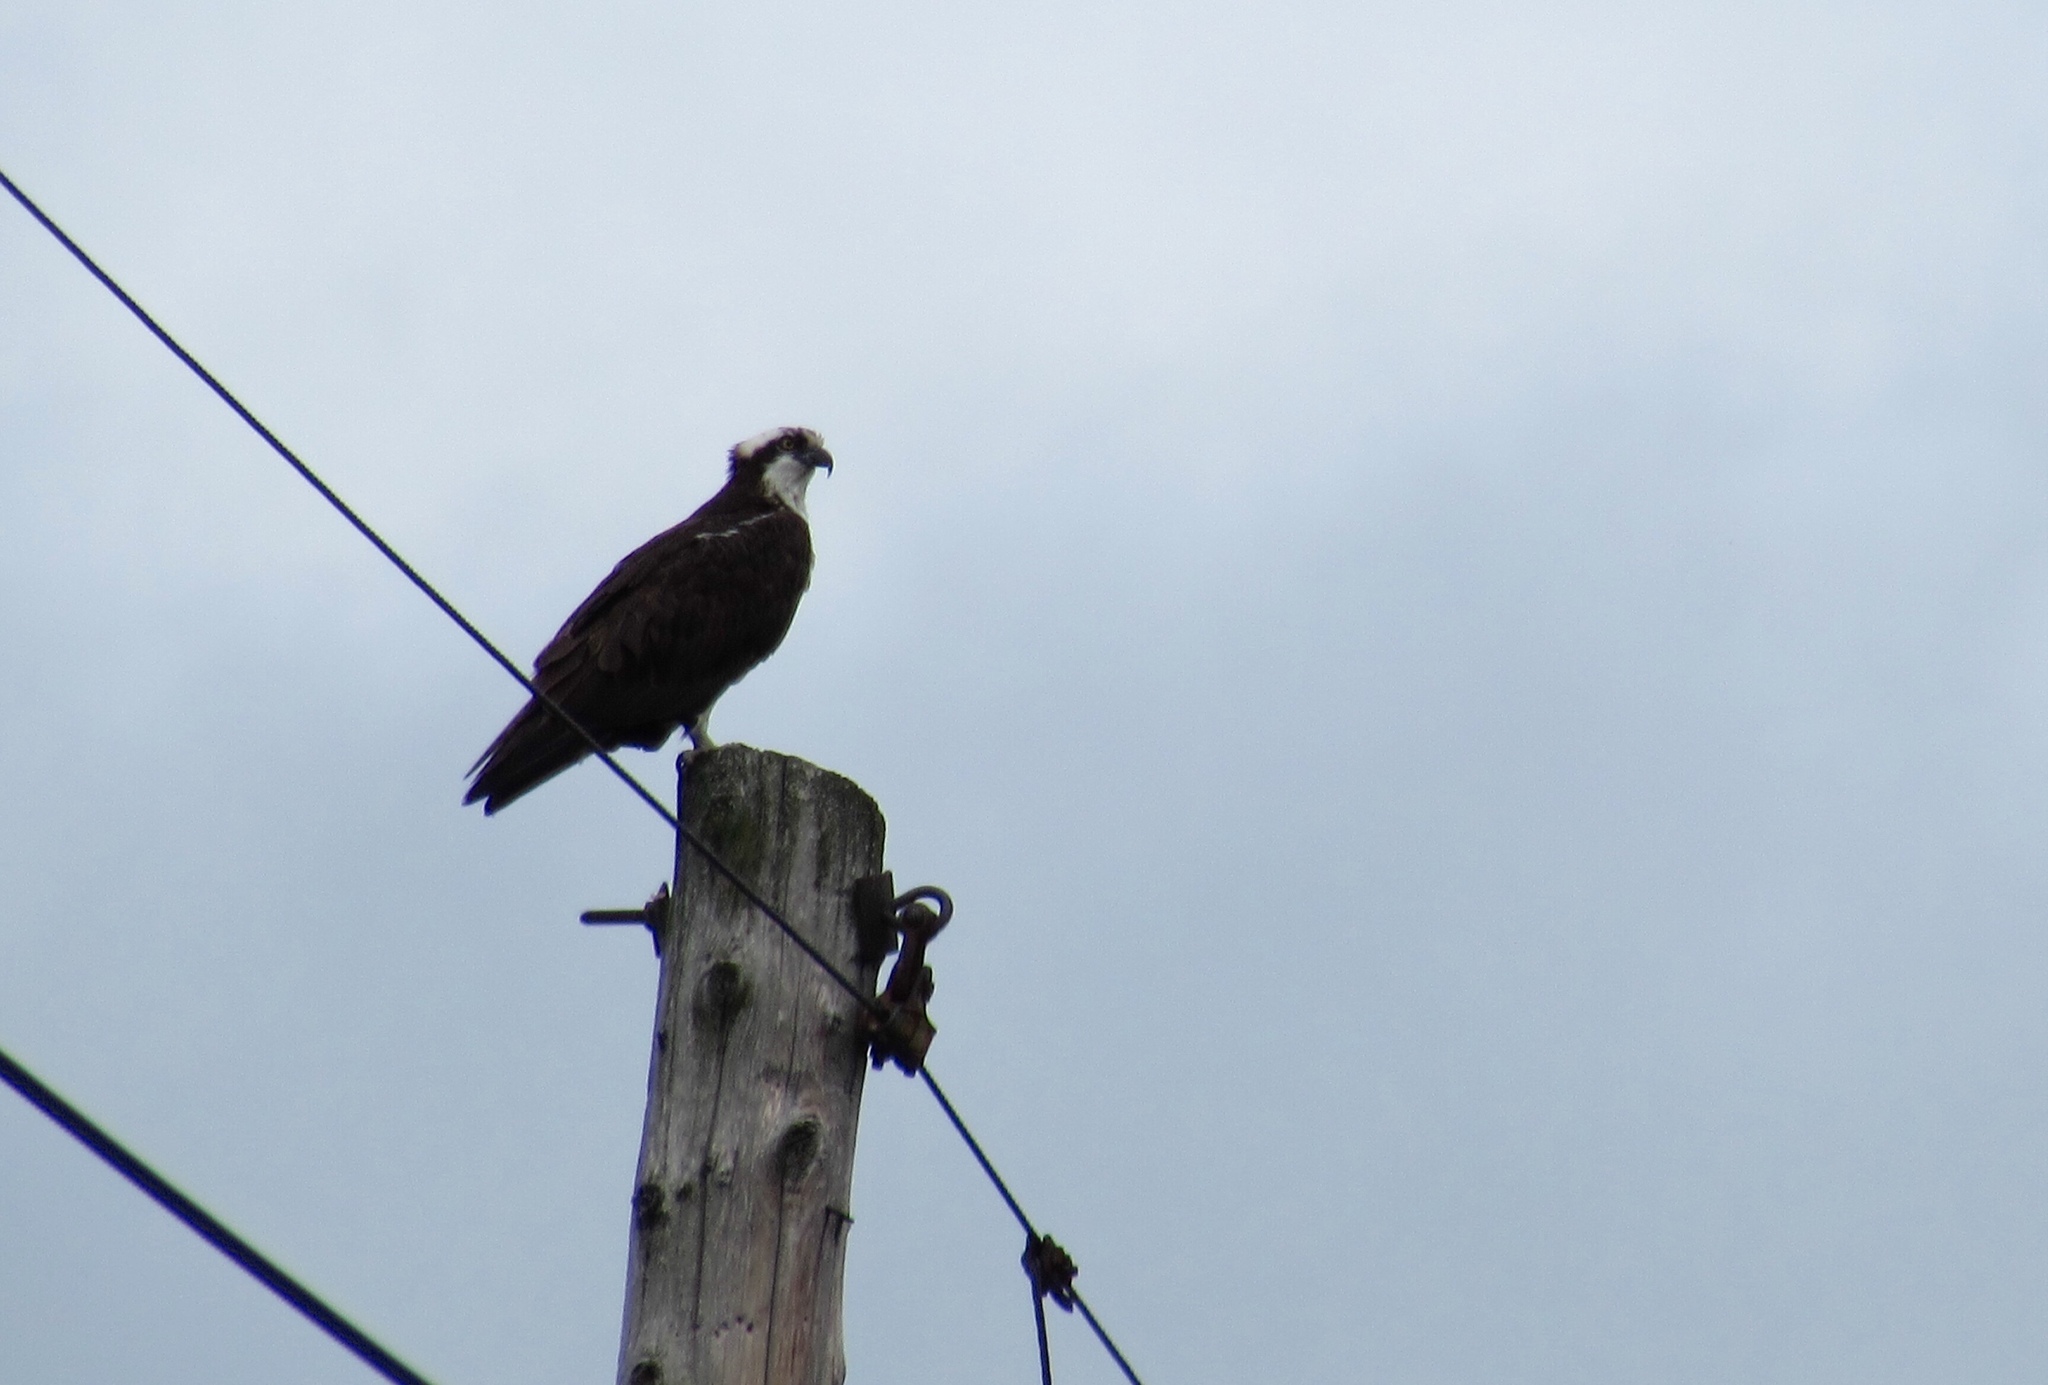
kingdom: Animalia
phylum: Chordata
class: Aves
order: Accipitriformes
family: Pandionidae
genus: Pandion
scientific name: Pandion haliaetus
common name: Osprey
